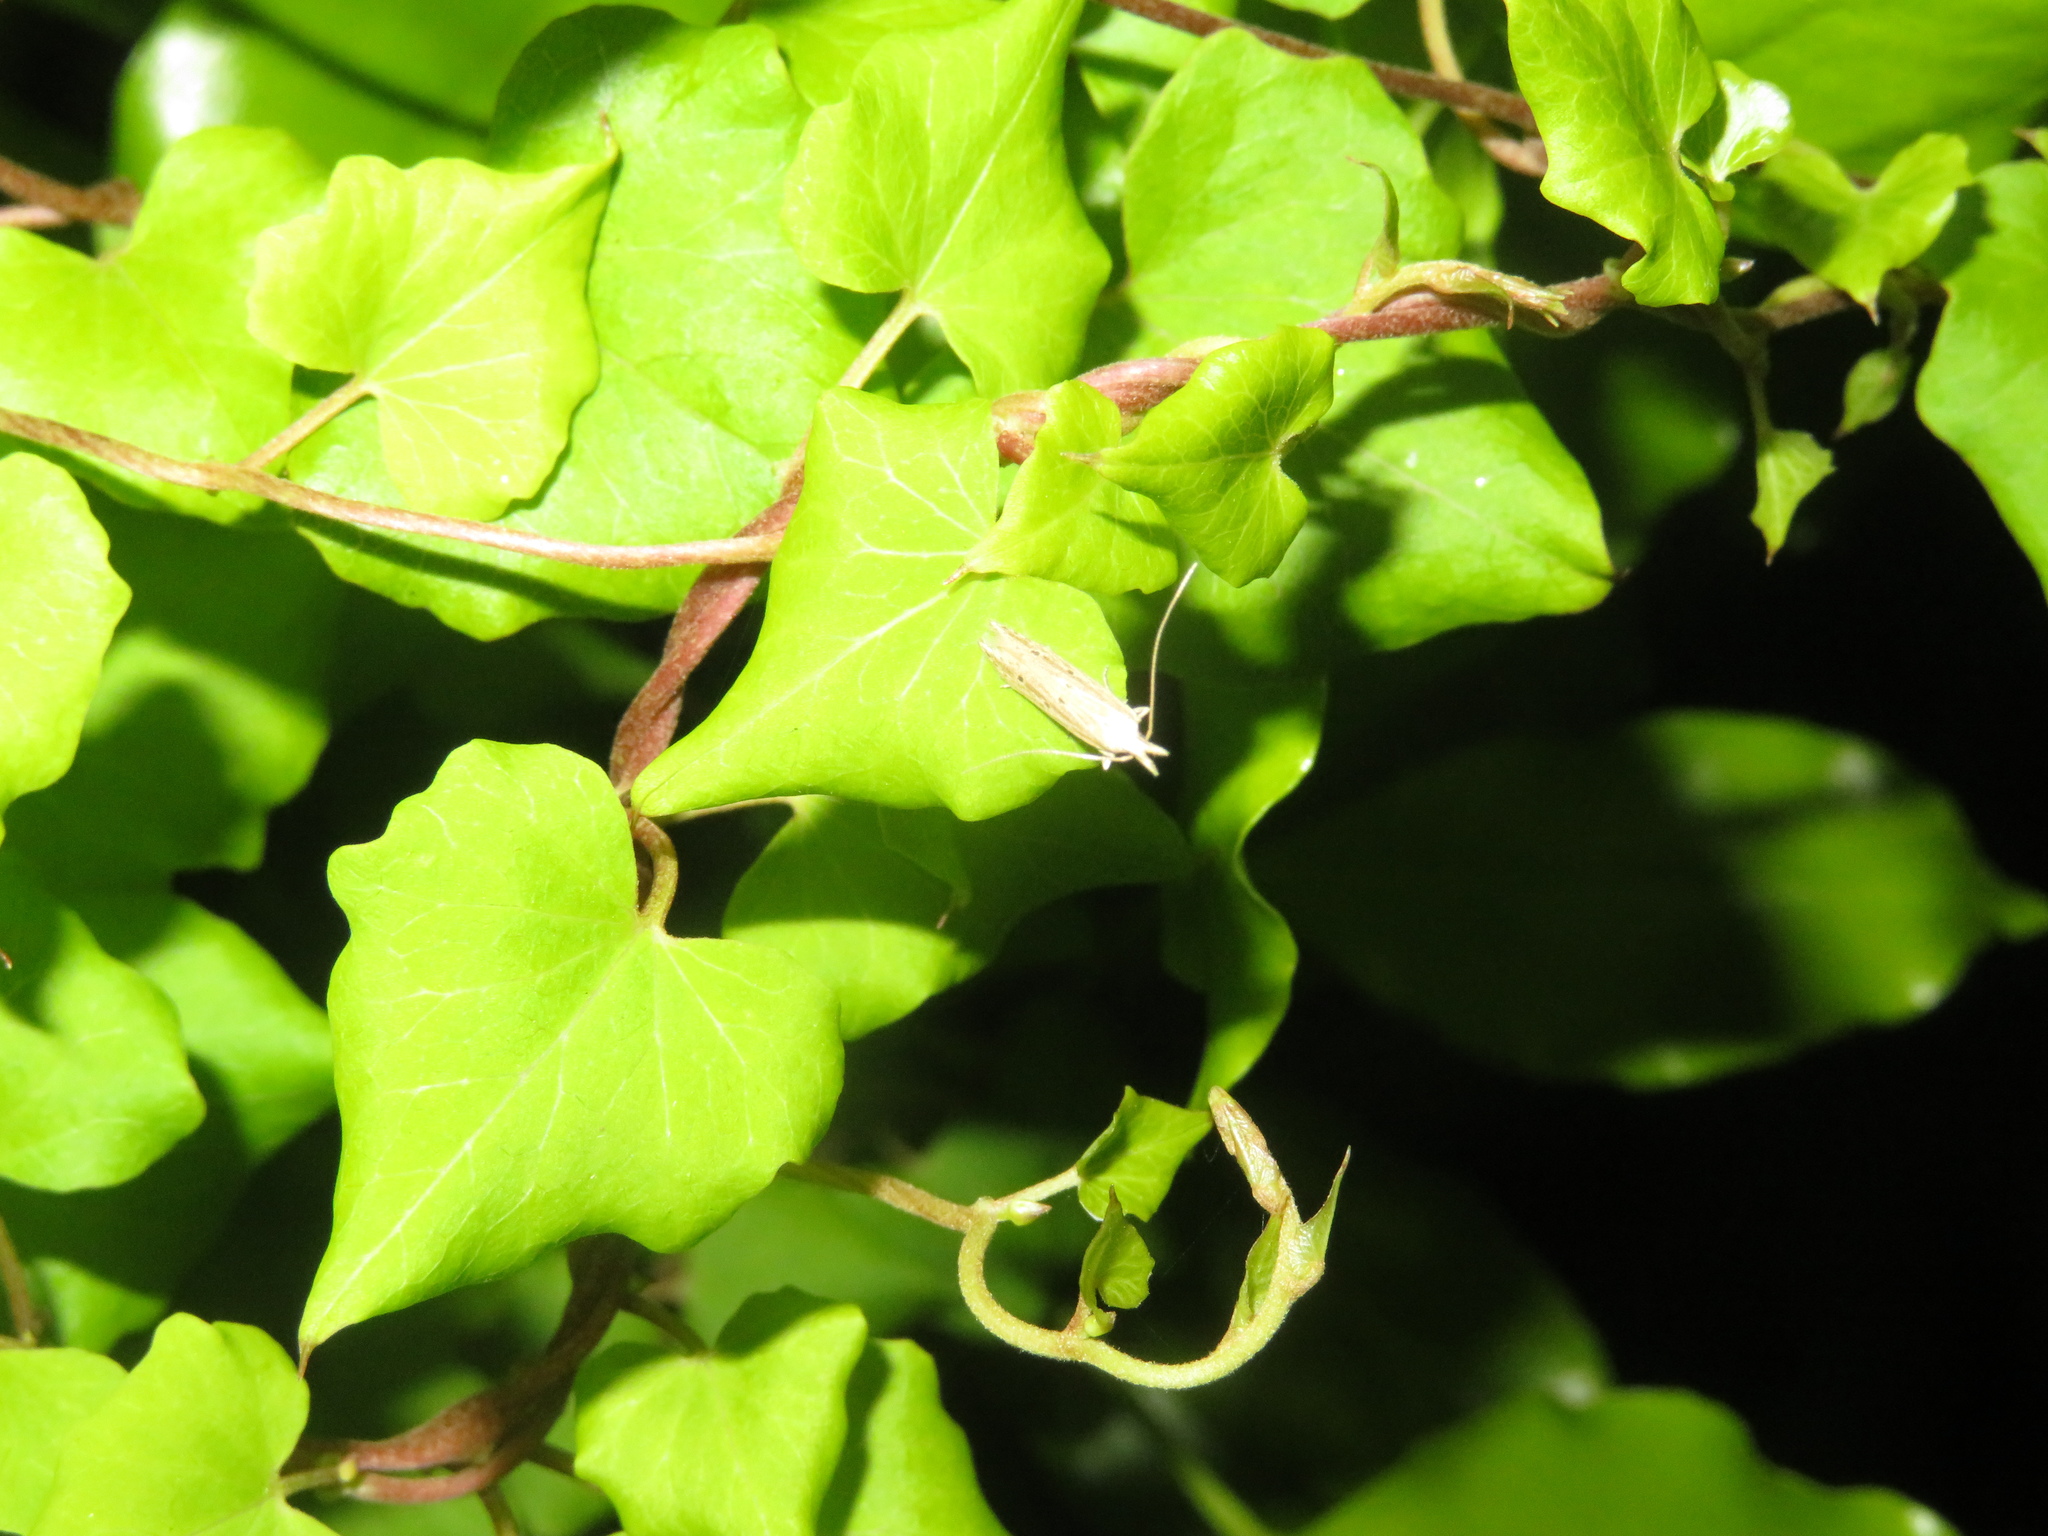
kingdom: Animalia
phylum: Arthropoda
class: Insecta
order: Lepidoptera
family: Gelechiidae
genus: Epiphthora
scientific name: Epiphthora calamogonus
